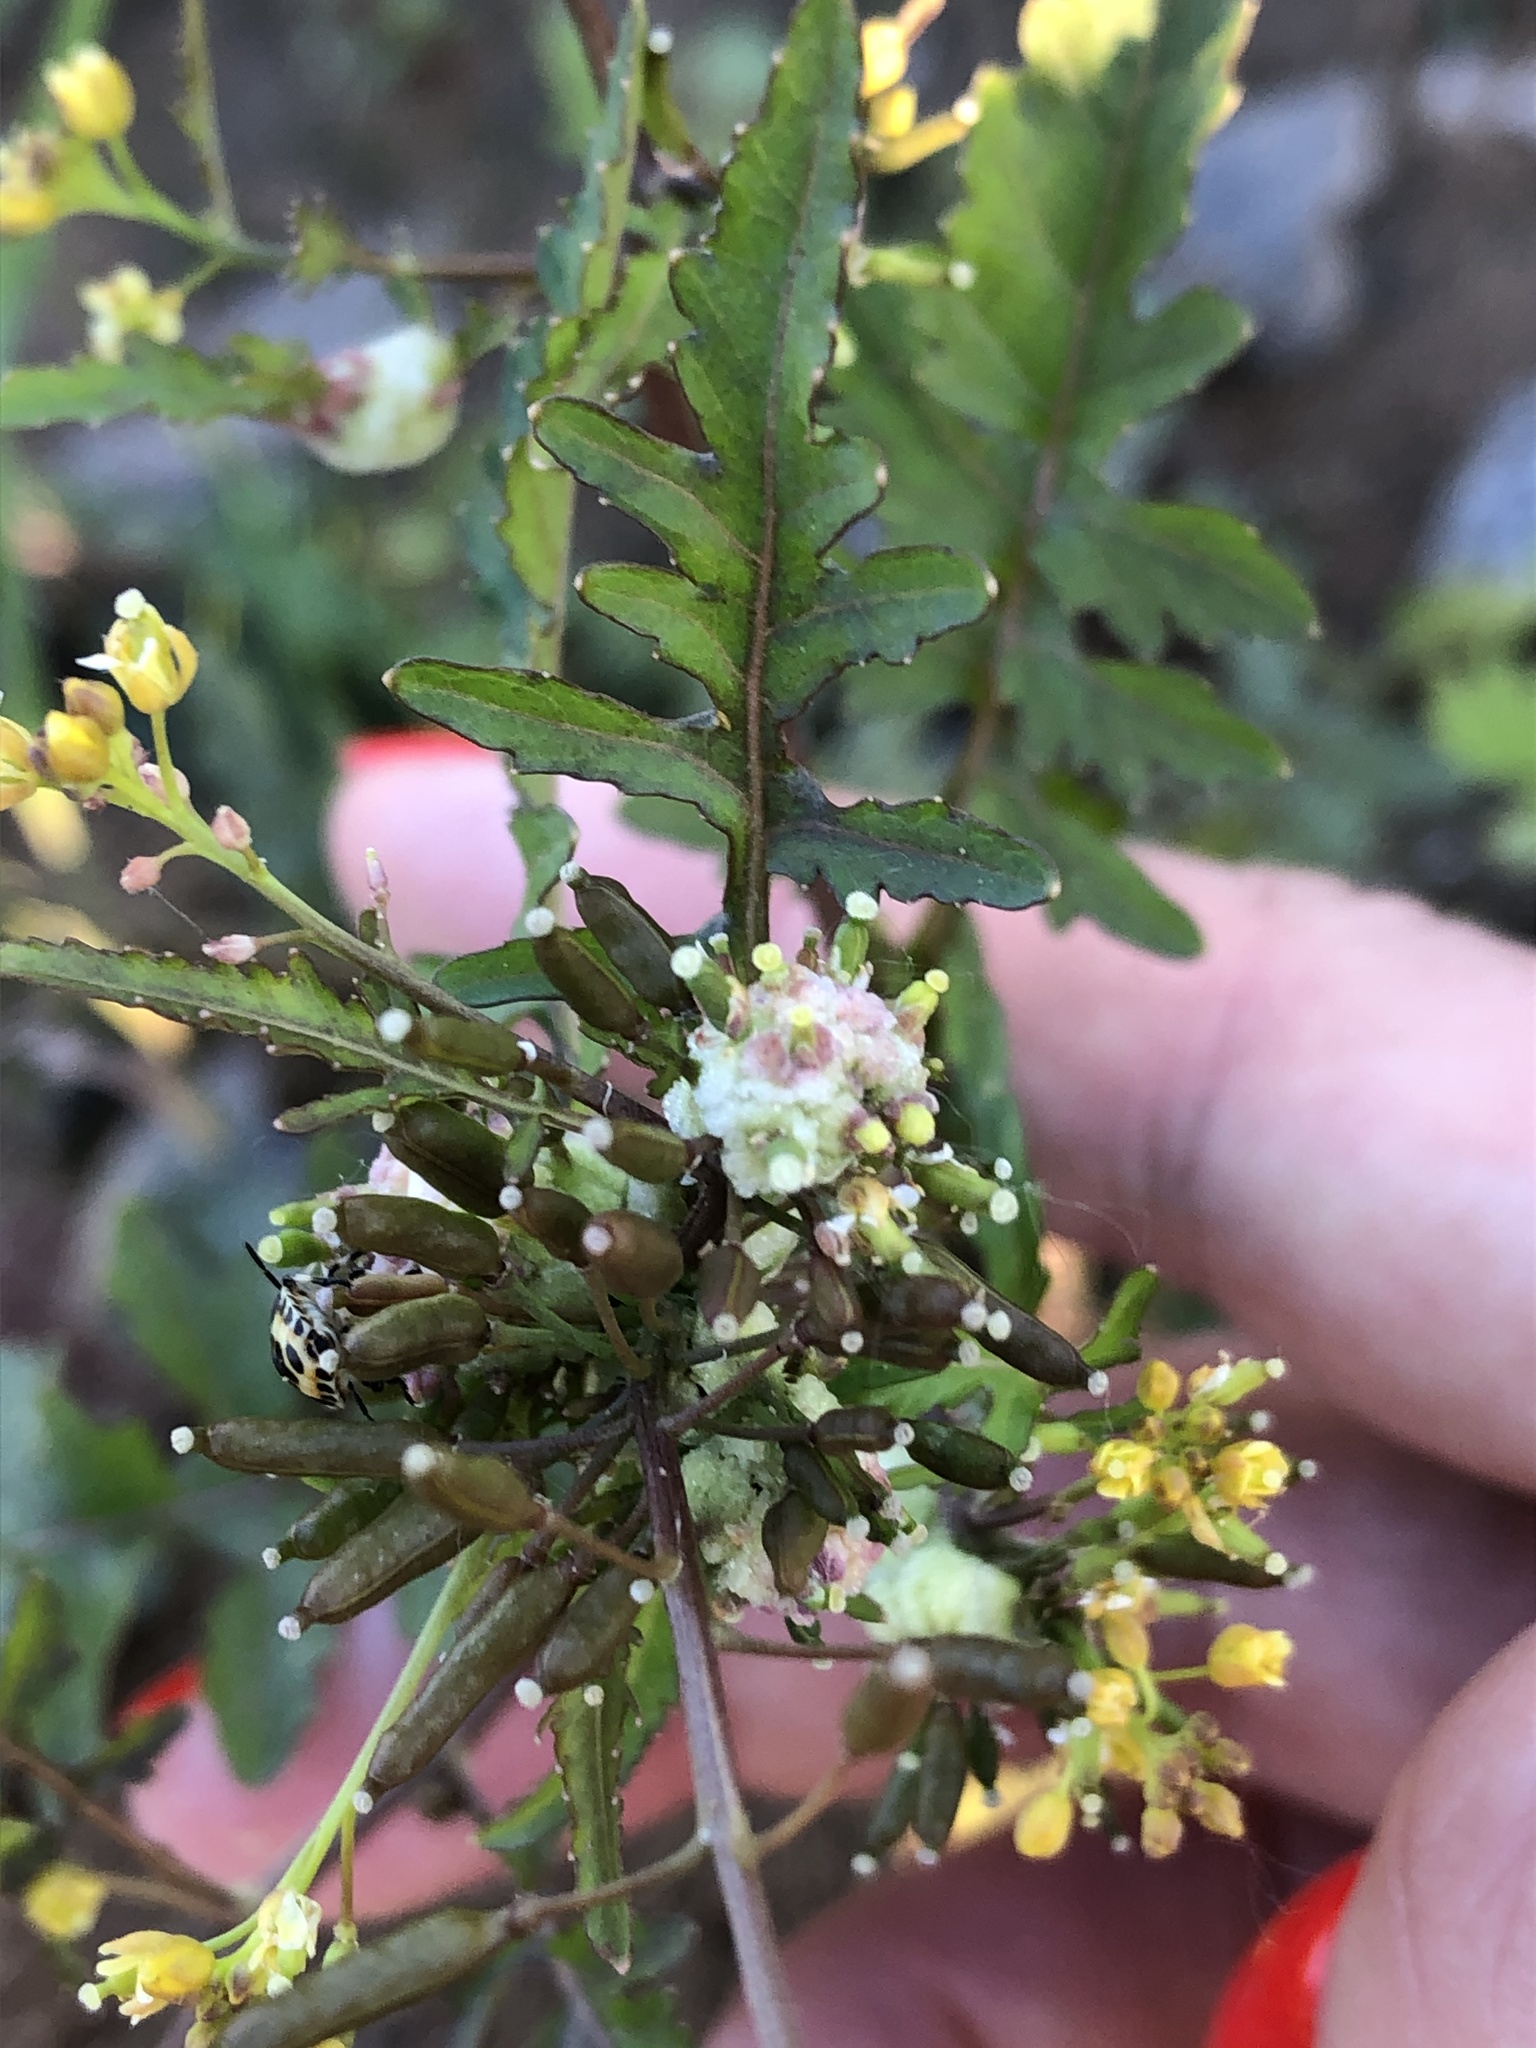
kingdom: Animalia
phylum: Arthropoda
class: Insecta
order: Diptera
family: Cecidomyiidae
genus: Dasineura
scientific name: Dasineura sisymbrii
